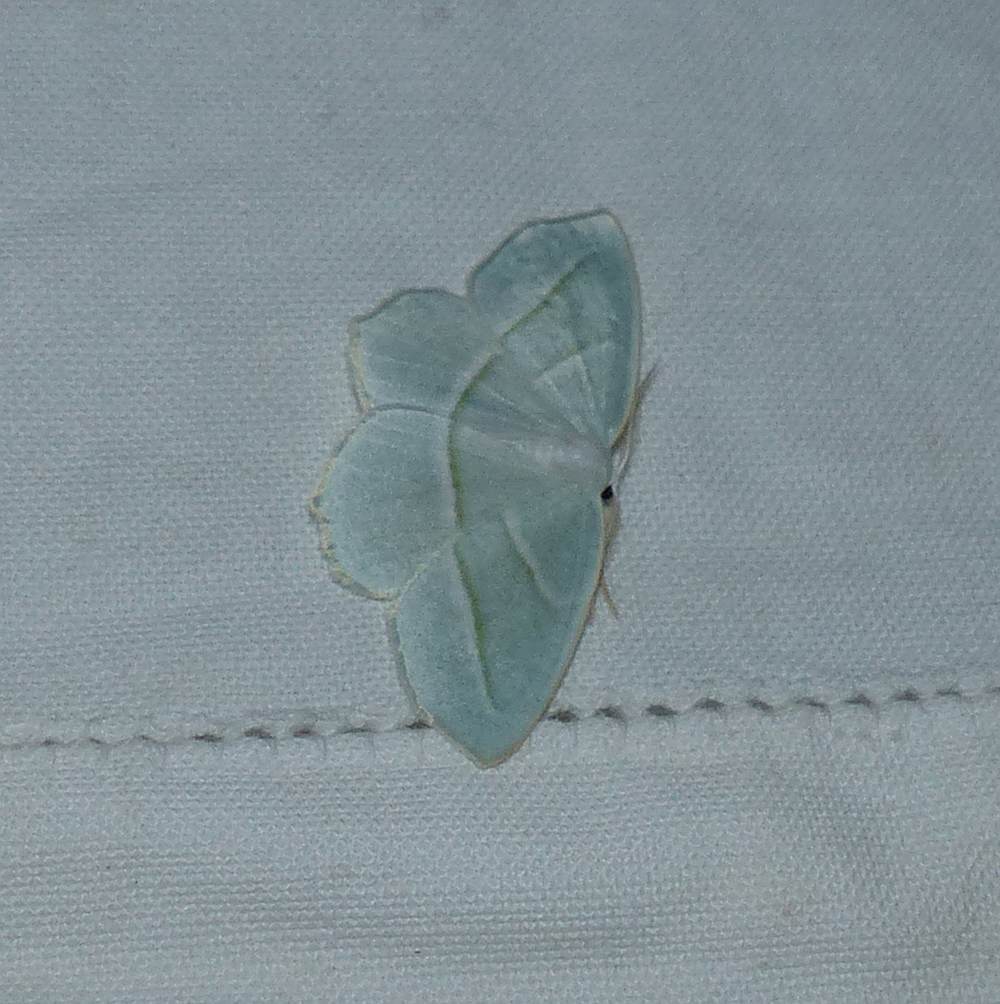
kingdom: Animalia
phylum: Arthropoda
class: Insecta
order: Lepidoptera
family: Geometridae
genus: Campaea
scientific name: Campaea perlata
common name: Fringed looper
